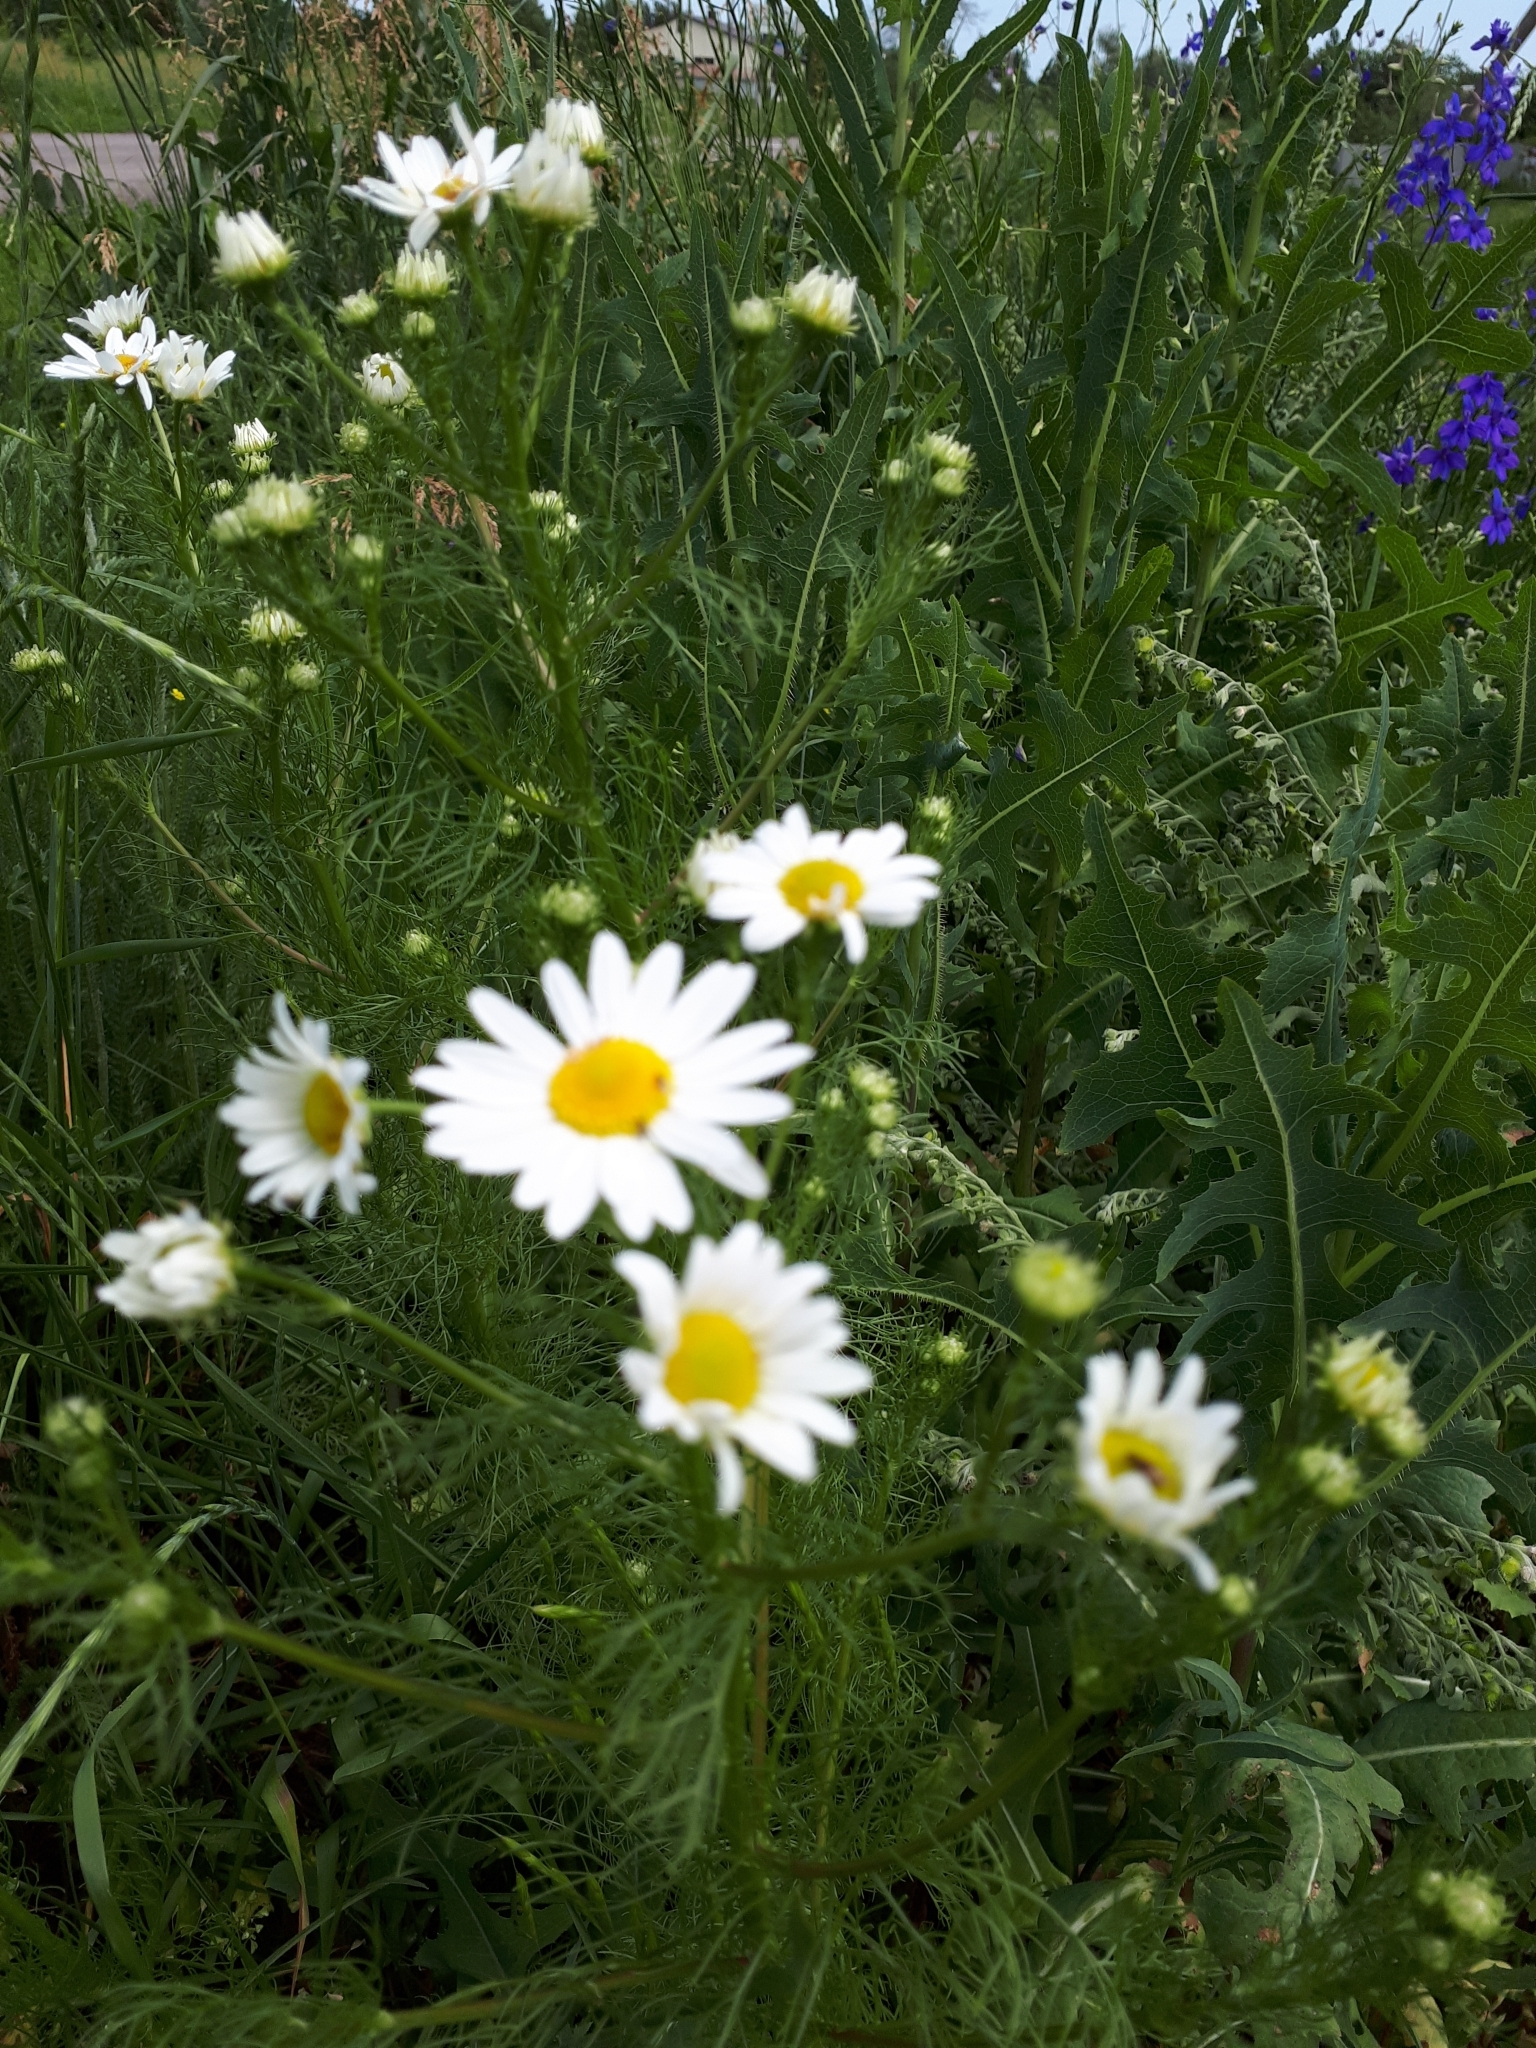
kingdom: Plantae
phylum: Tracheophyta
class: Magnoliopsida
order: Asterales
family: Asteraceae
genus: Tripleurospermum
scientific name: Tripleurospermum inodorum
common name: Scentless mayweed
